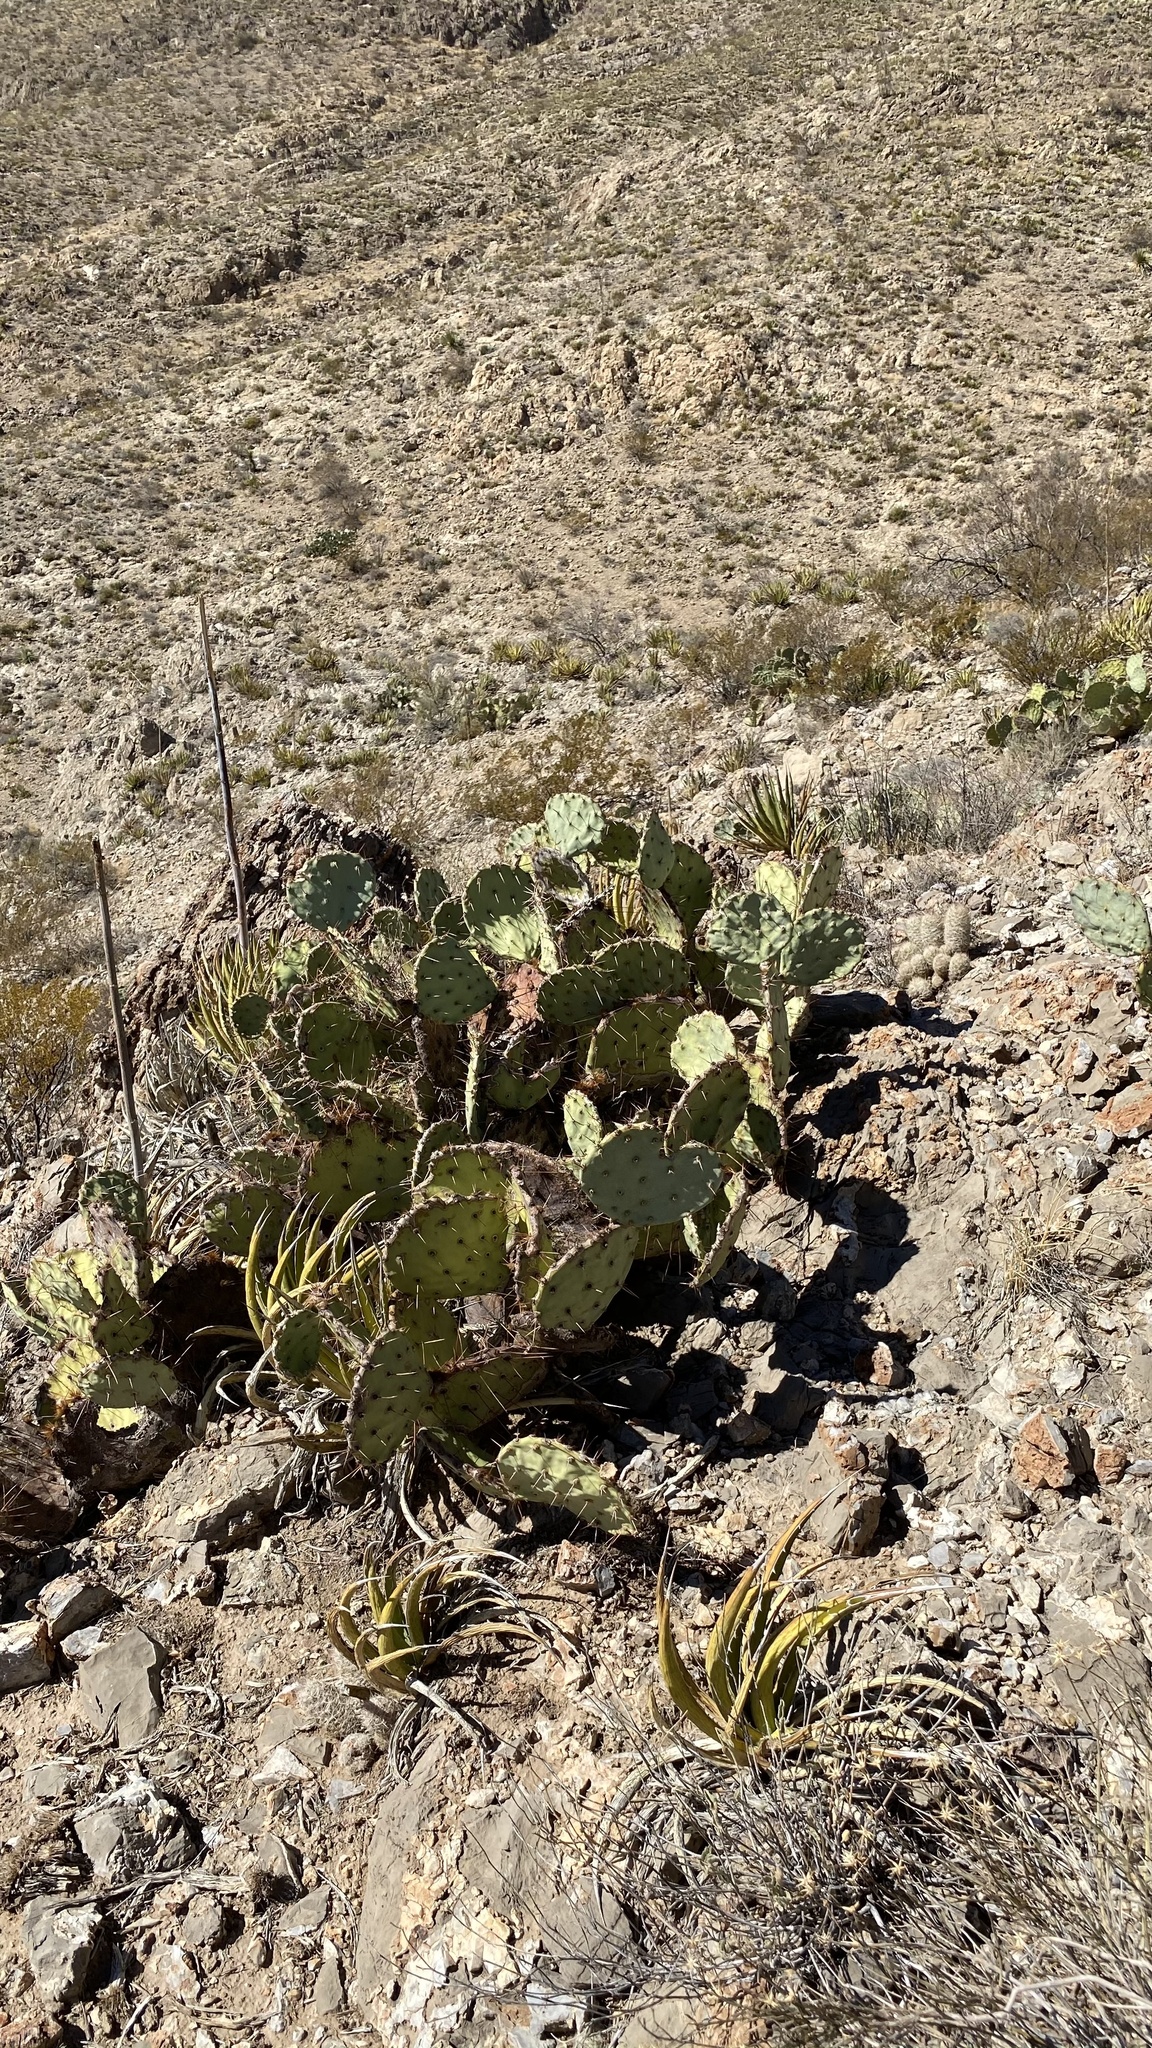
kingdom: Plantae
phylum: Tracheophyta
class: Magnoliopsida
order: Caryophyllales
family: Cactaceae
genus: Opuntia
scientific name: Opuntia engelmannii
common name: Cactus-apple
